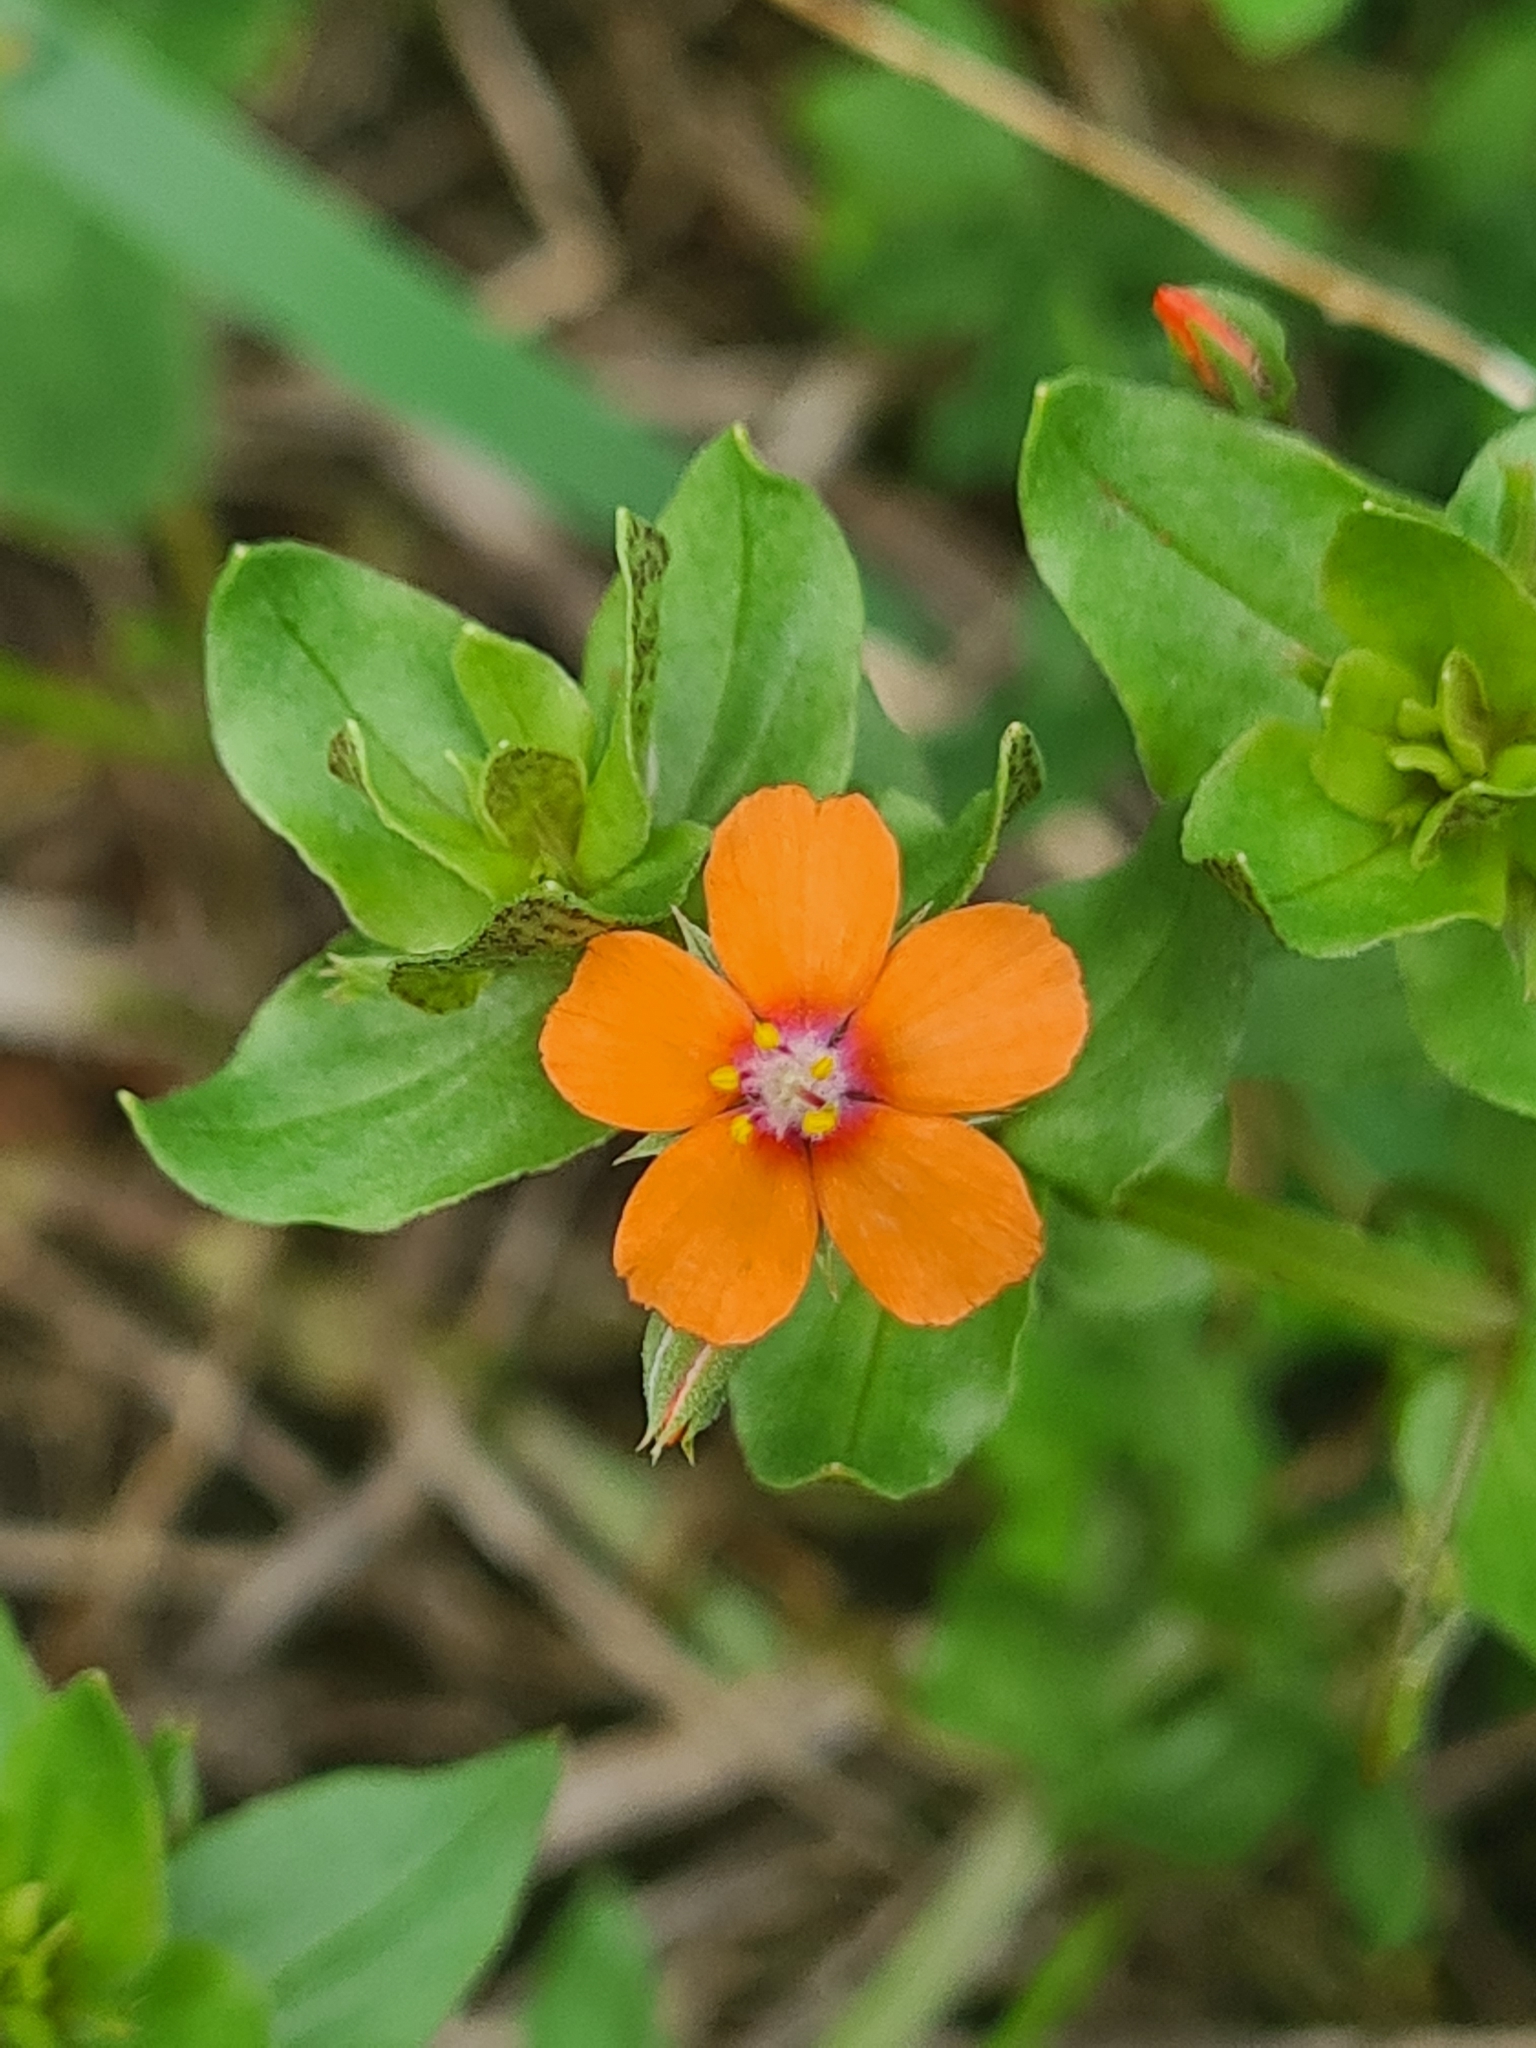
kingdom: Plantae
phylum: Tracheophyta
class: Magnoliopsida
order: Ericales
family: Primulaceae
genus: Lysimachia
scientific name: Lysimachia arvensis
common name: Scarlet pimpernel
